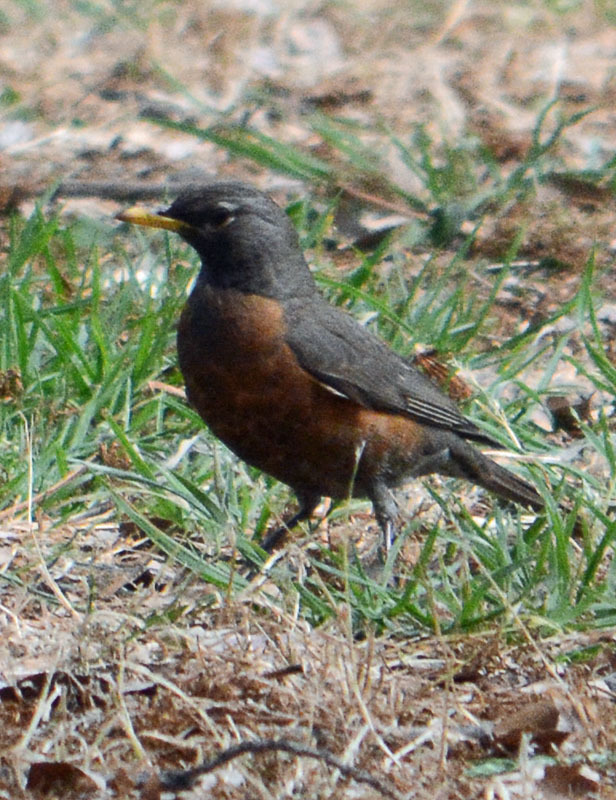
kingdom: Animalia
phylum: Chordata
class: Aves
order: Passeriformes
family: Turdidae
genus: Turdus
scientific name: Turdus migratorius
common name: American robin
